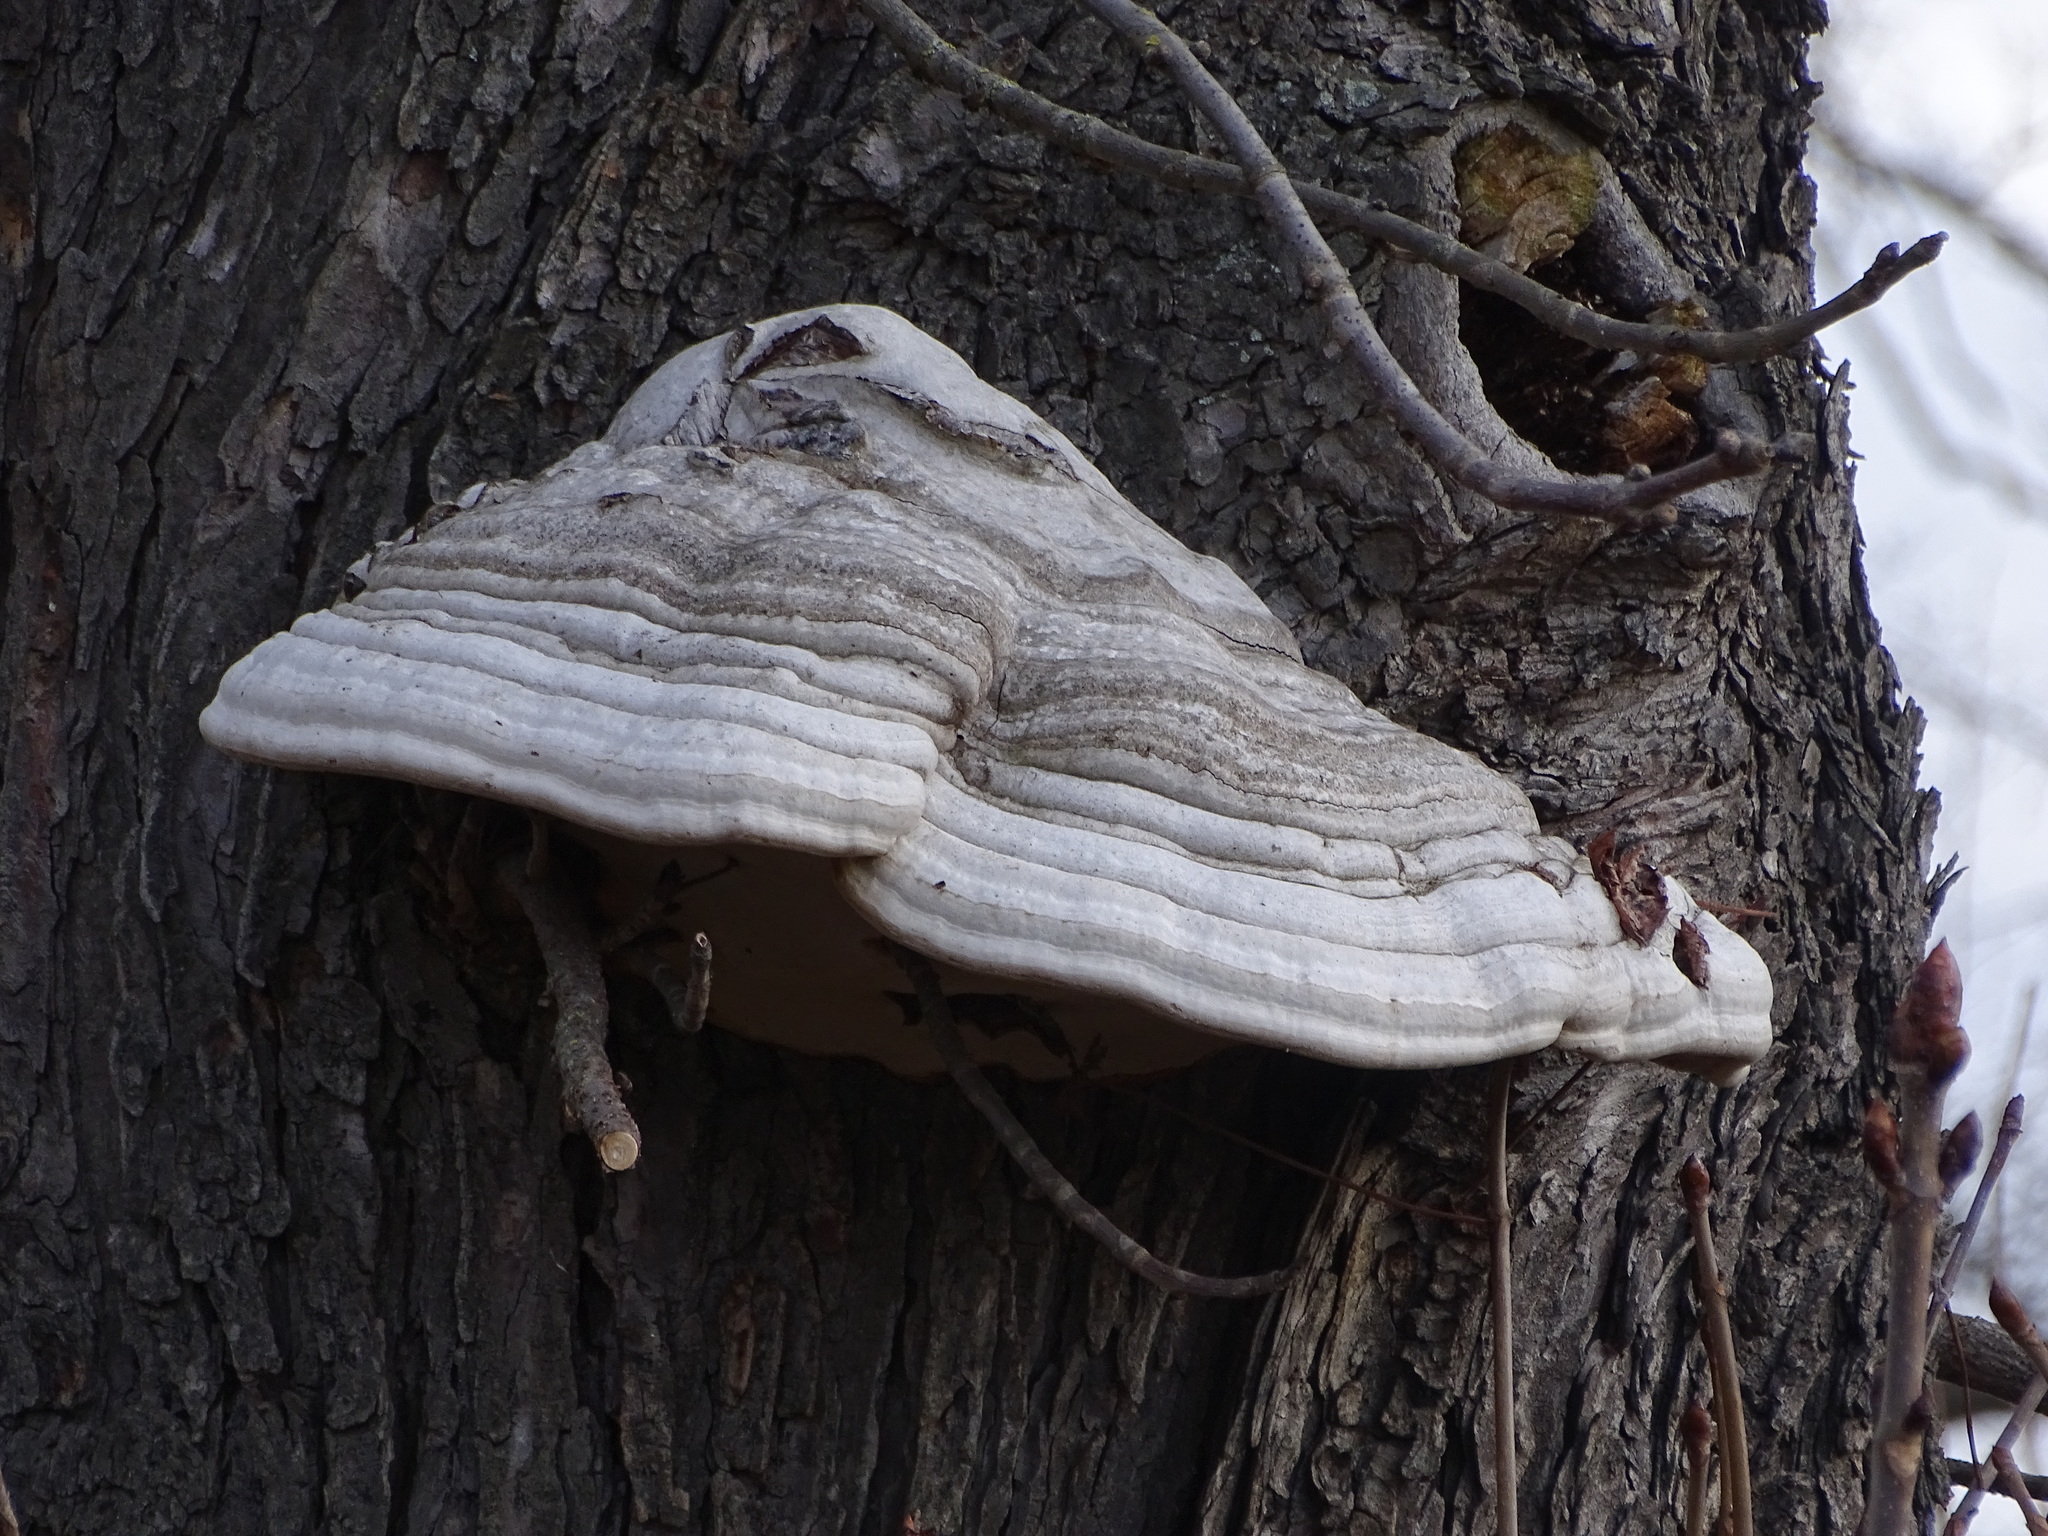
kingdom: Fungi
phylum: Basidiomycota
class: Agaricomycetes
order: Polyporales
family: Polyporaceae
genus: Fomes
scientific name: Fomes fomentarius
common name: Hoof fungus
